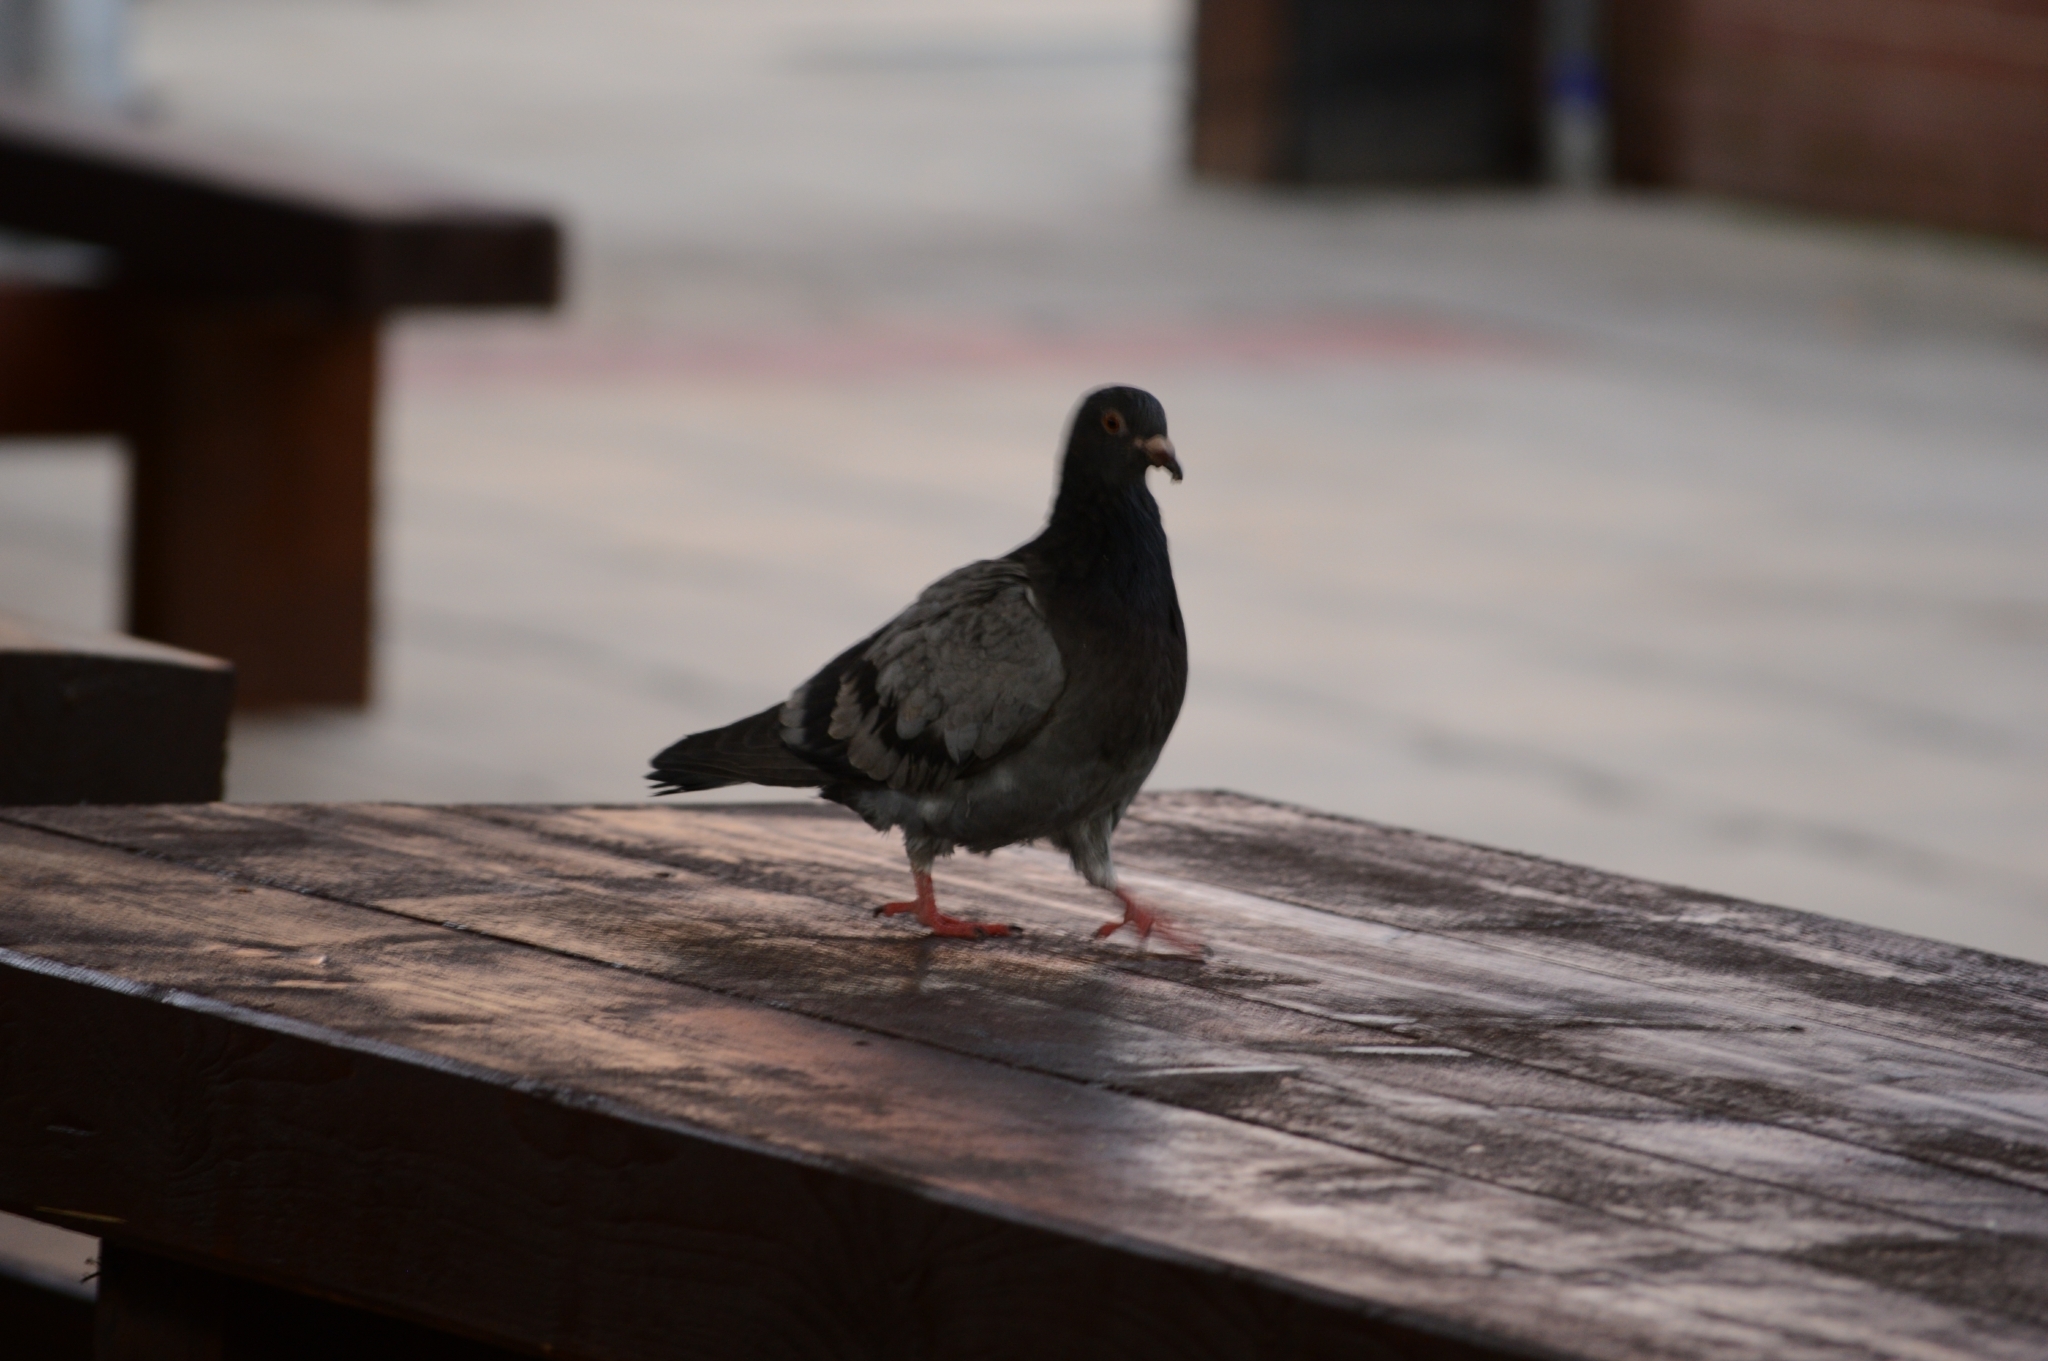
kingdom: Animalia
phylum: Chordata
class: Aves
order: Columbiformes
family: Columbidae
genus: Columba
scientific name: Columba livia
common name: Rock pigeon
